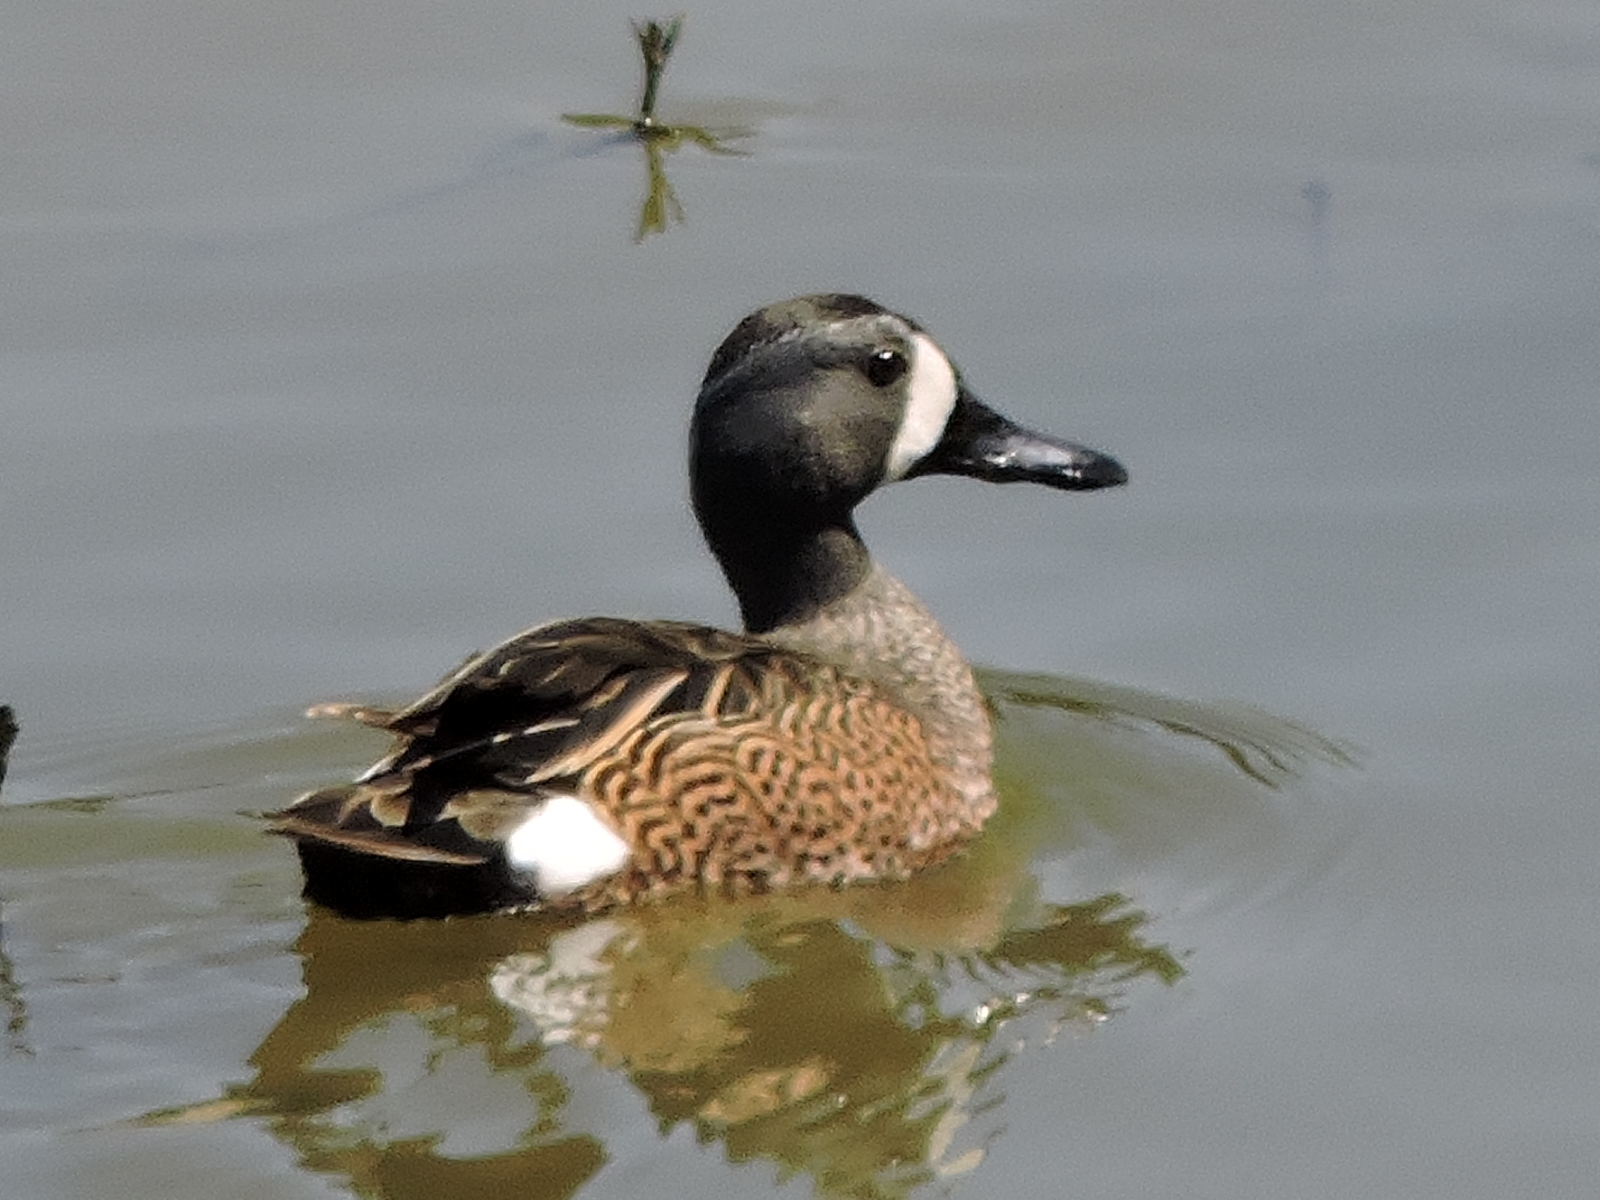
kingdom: Animalia
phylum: Chordata
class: Aves
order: Anseriformes
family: Anatidae
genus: Spatula
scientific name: Spatula discors
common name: Blue-winged teal
